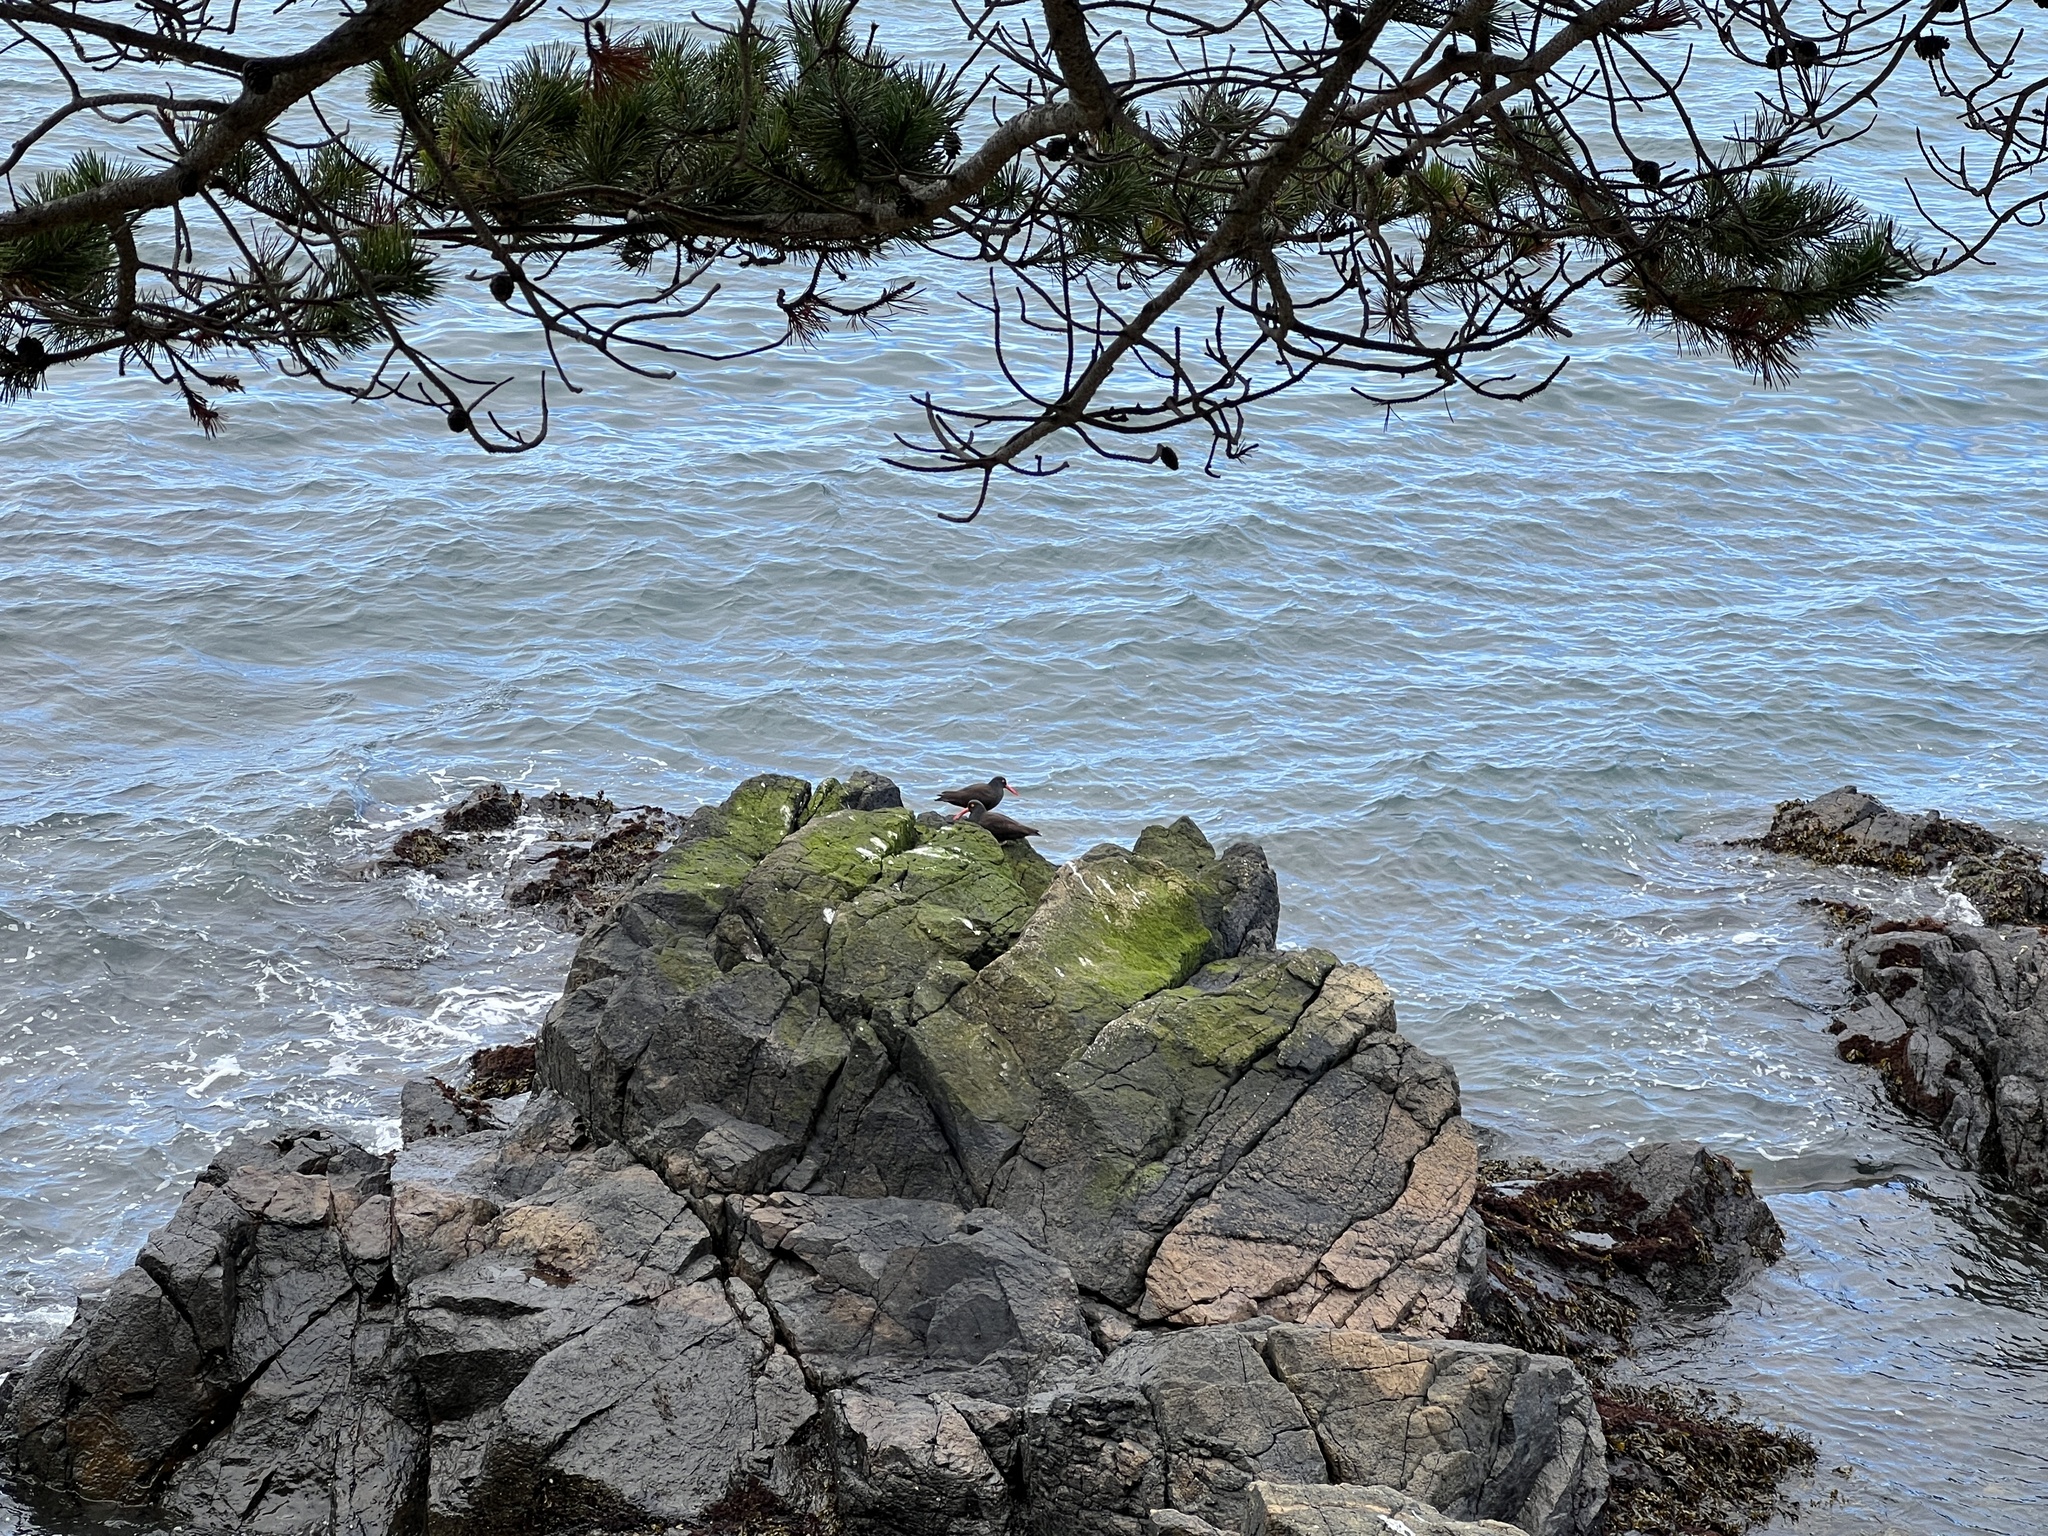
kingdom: Animalia
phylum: Chordata
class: Aves
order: Charadriiformes
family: Haematopodidae
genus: Haematopus
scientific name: Haematopus bachmani
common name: Black oystercatcher
